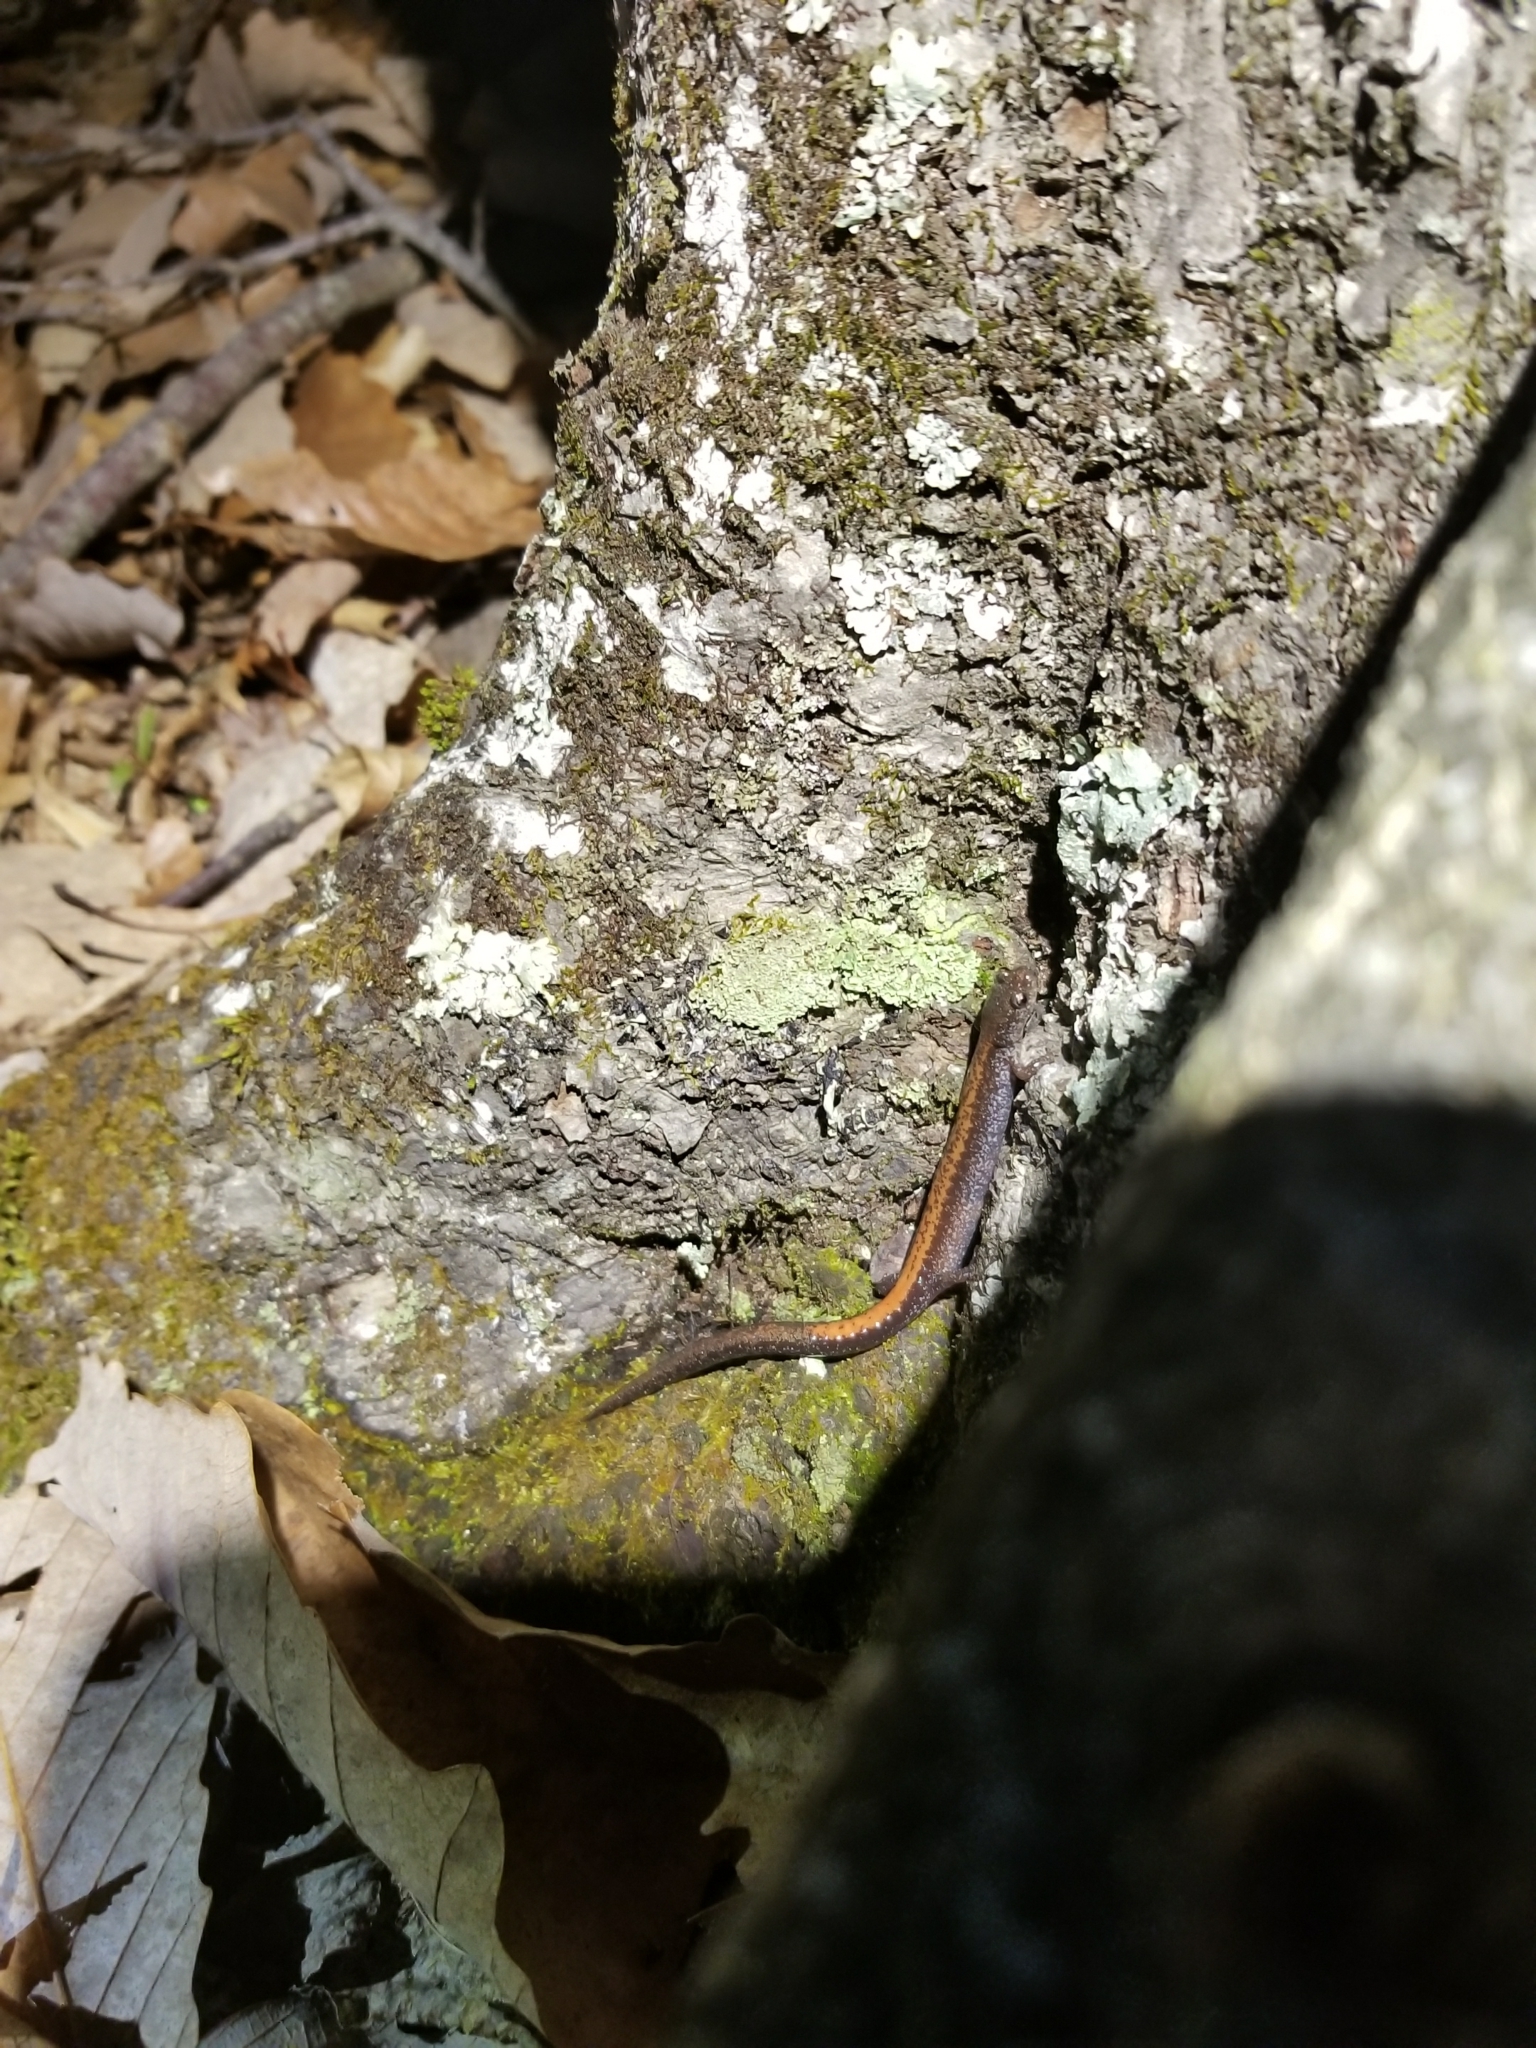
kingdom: Animalia
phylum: Chordata
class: Amphibia
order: Caudata
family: Plethodontidae
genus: Plethodon
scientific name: Plethodon cinereus
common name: Redback salamander
